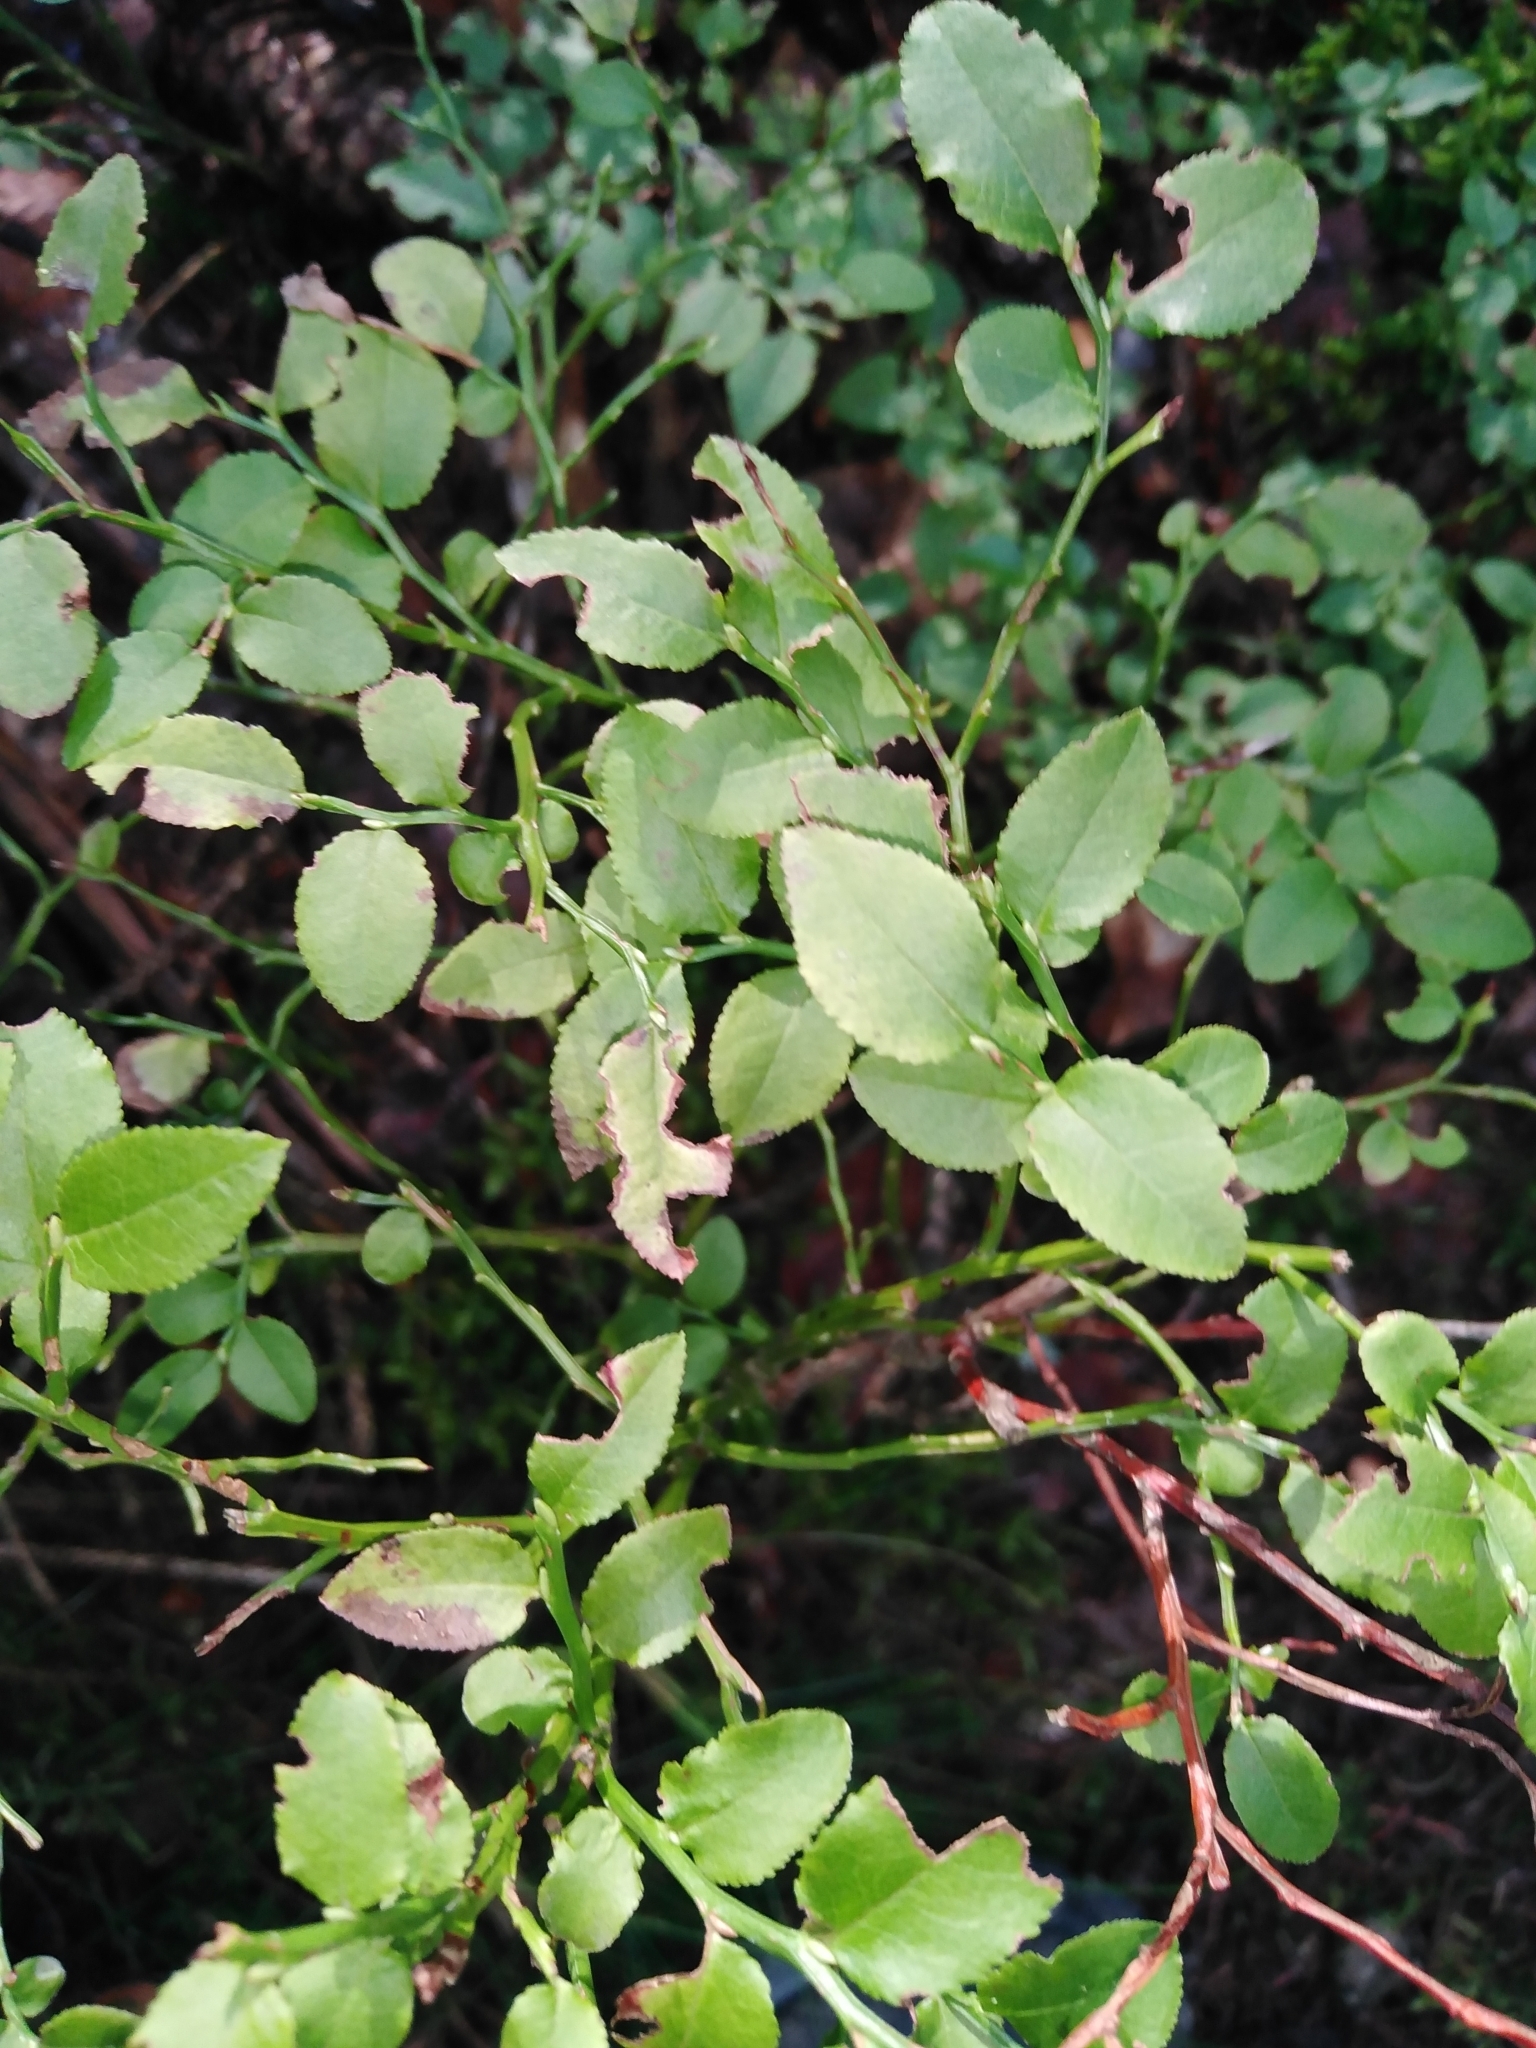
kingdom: Plantae
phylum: Tracheophyta
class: Magnoliopsida
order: Ericales
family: Ericaceae
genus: Vaccinium
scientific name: Vaccinium myrtillus
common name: Bilberry
